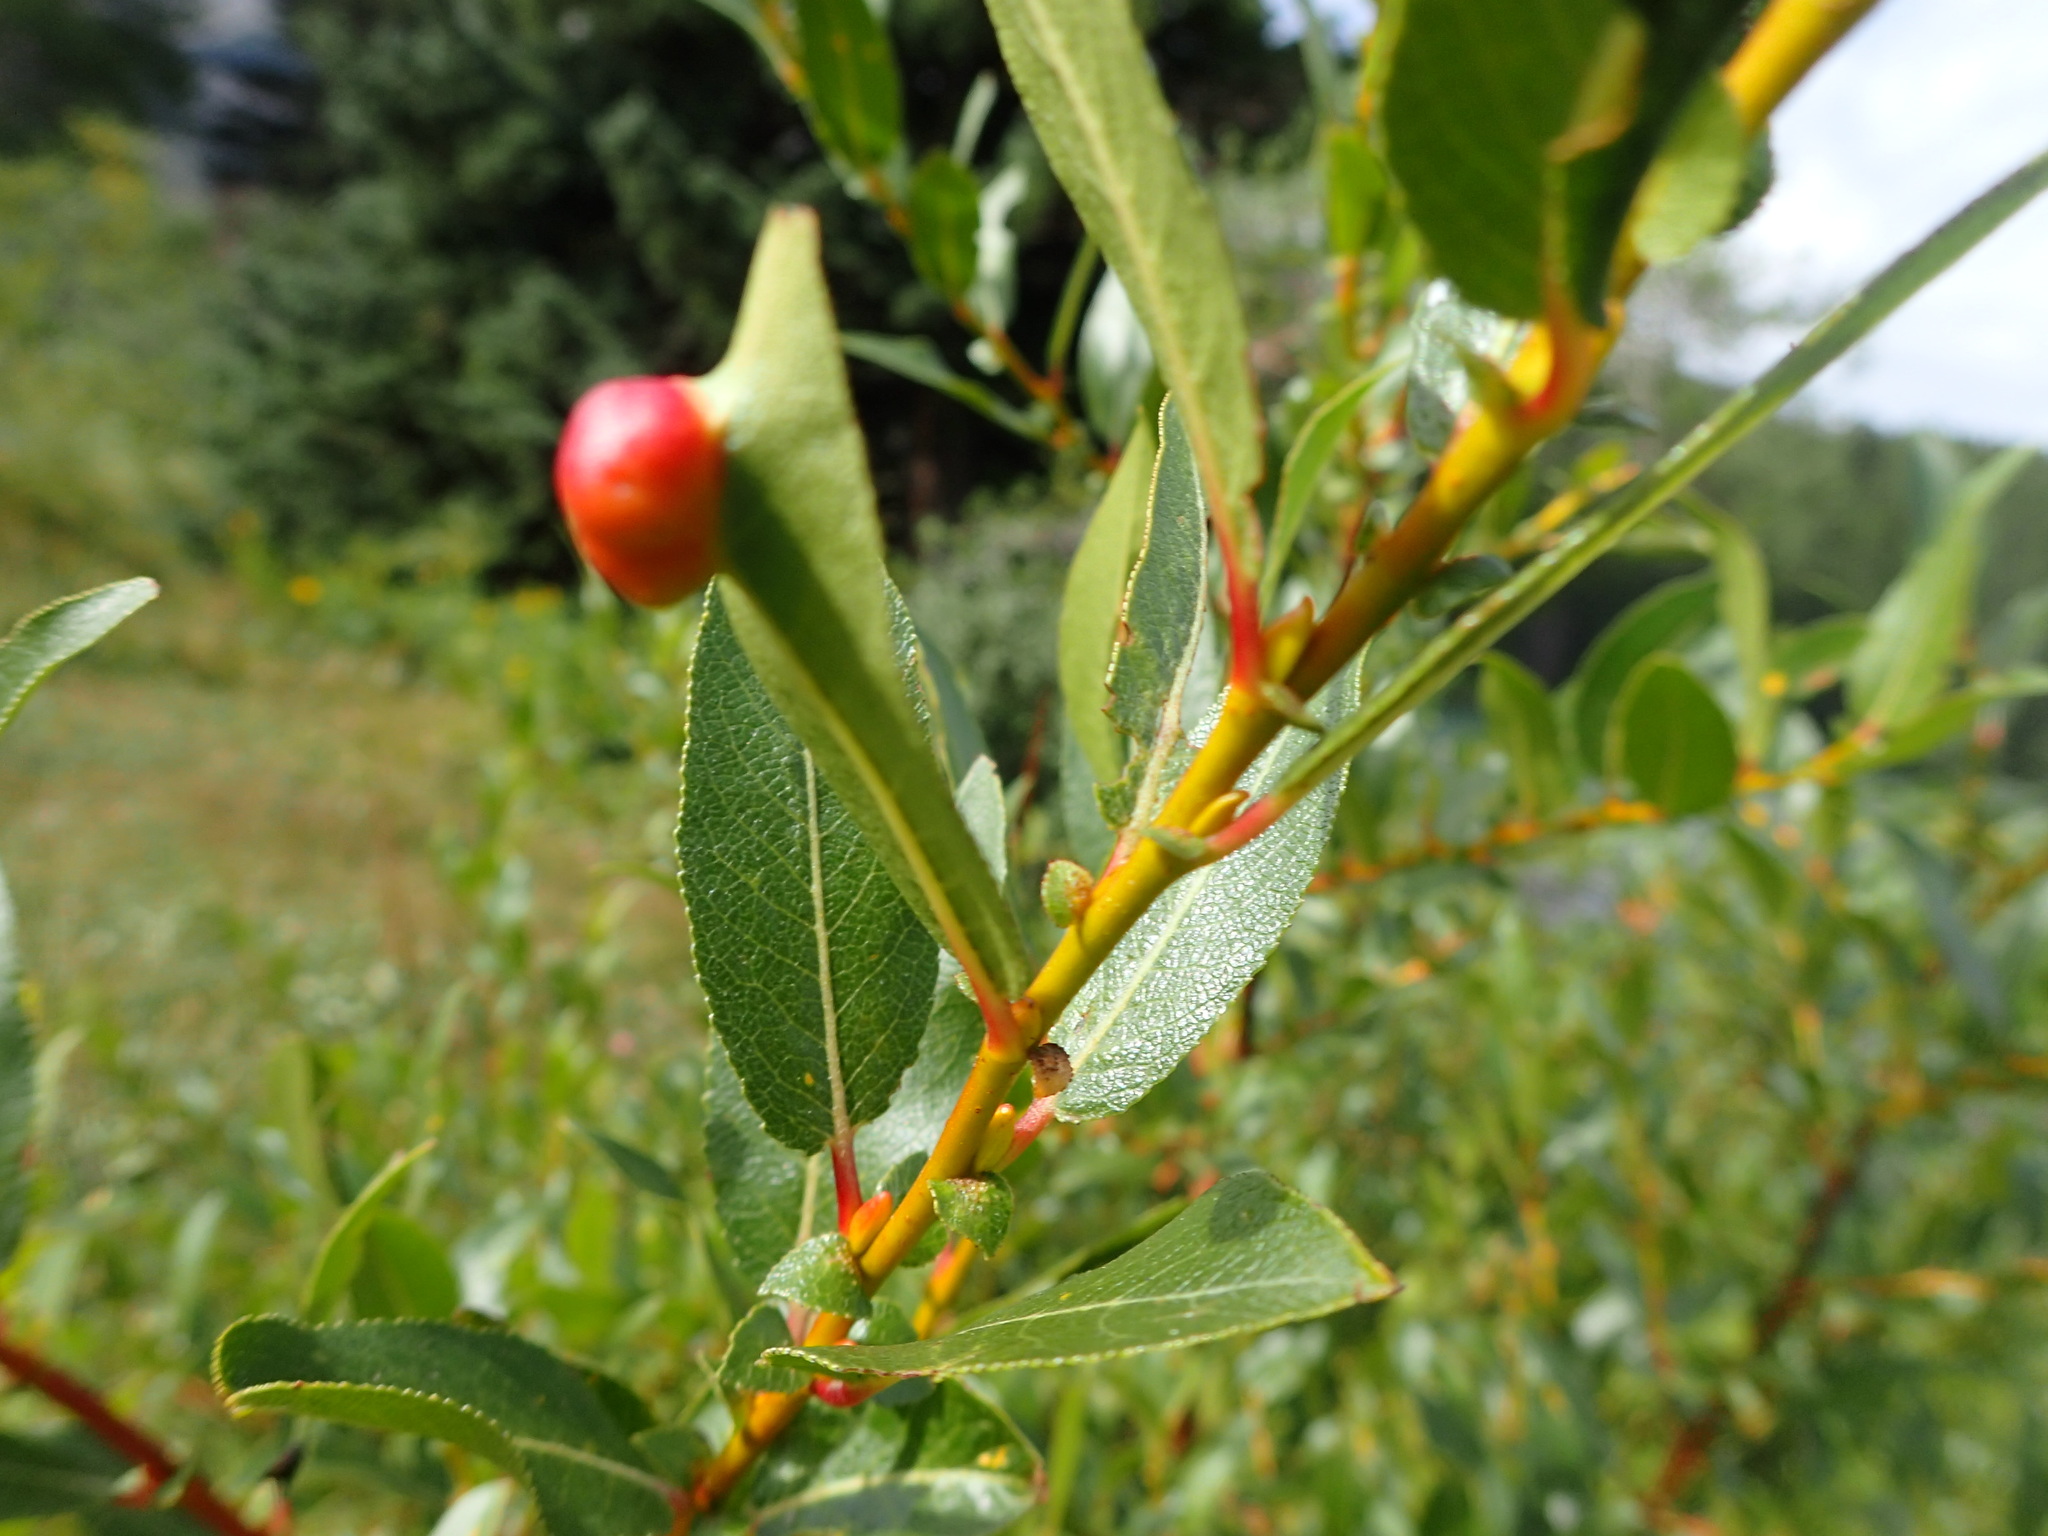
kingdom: Plantae
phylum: Tracheophyta
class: Magnoliopsida
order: Malpighiales
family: Salicaceae
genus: Salix
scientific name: Salix maccalliana
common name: Maccalla’s willow
